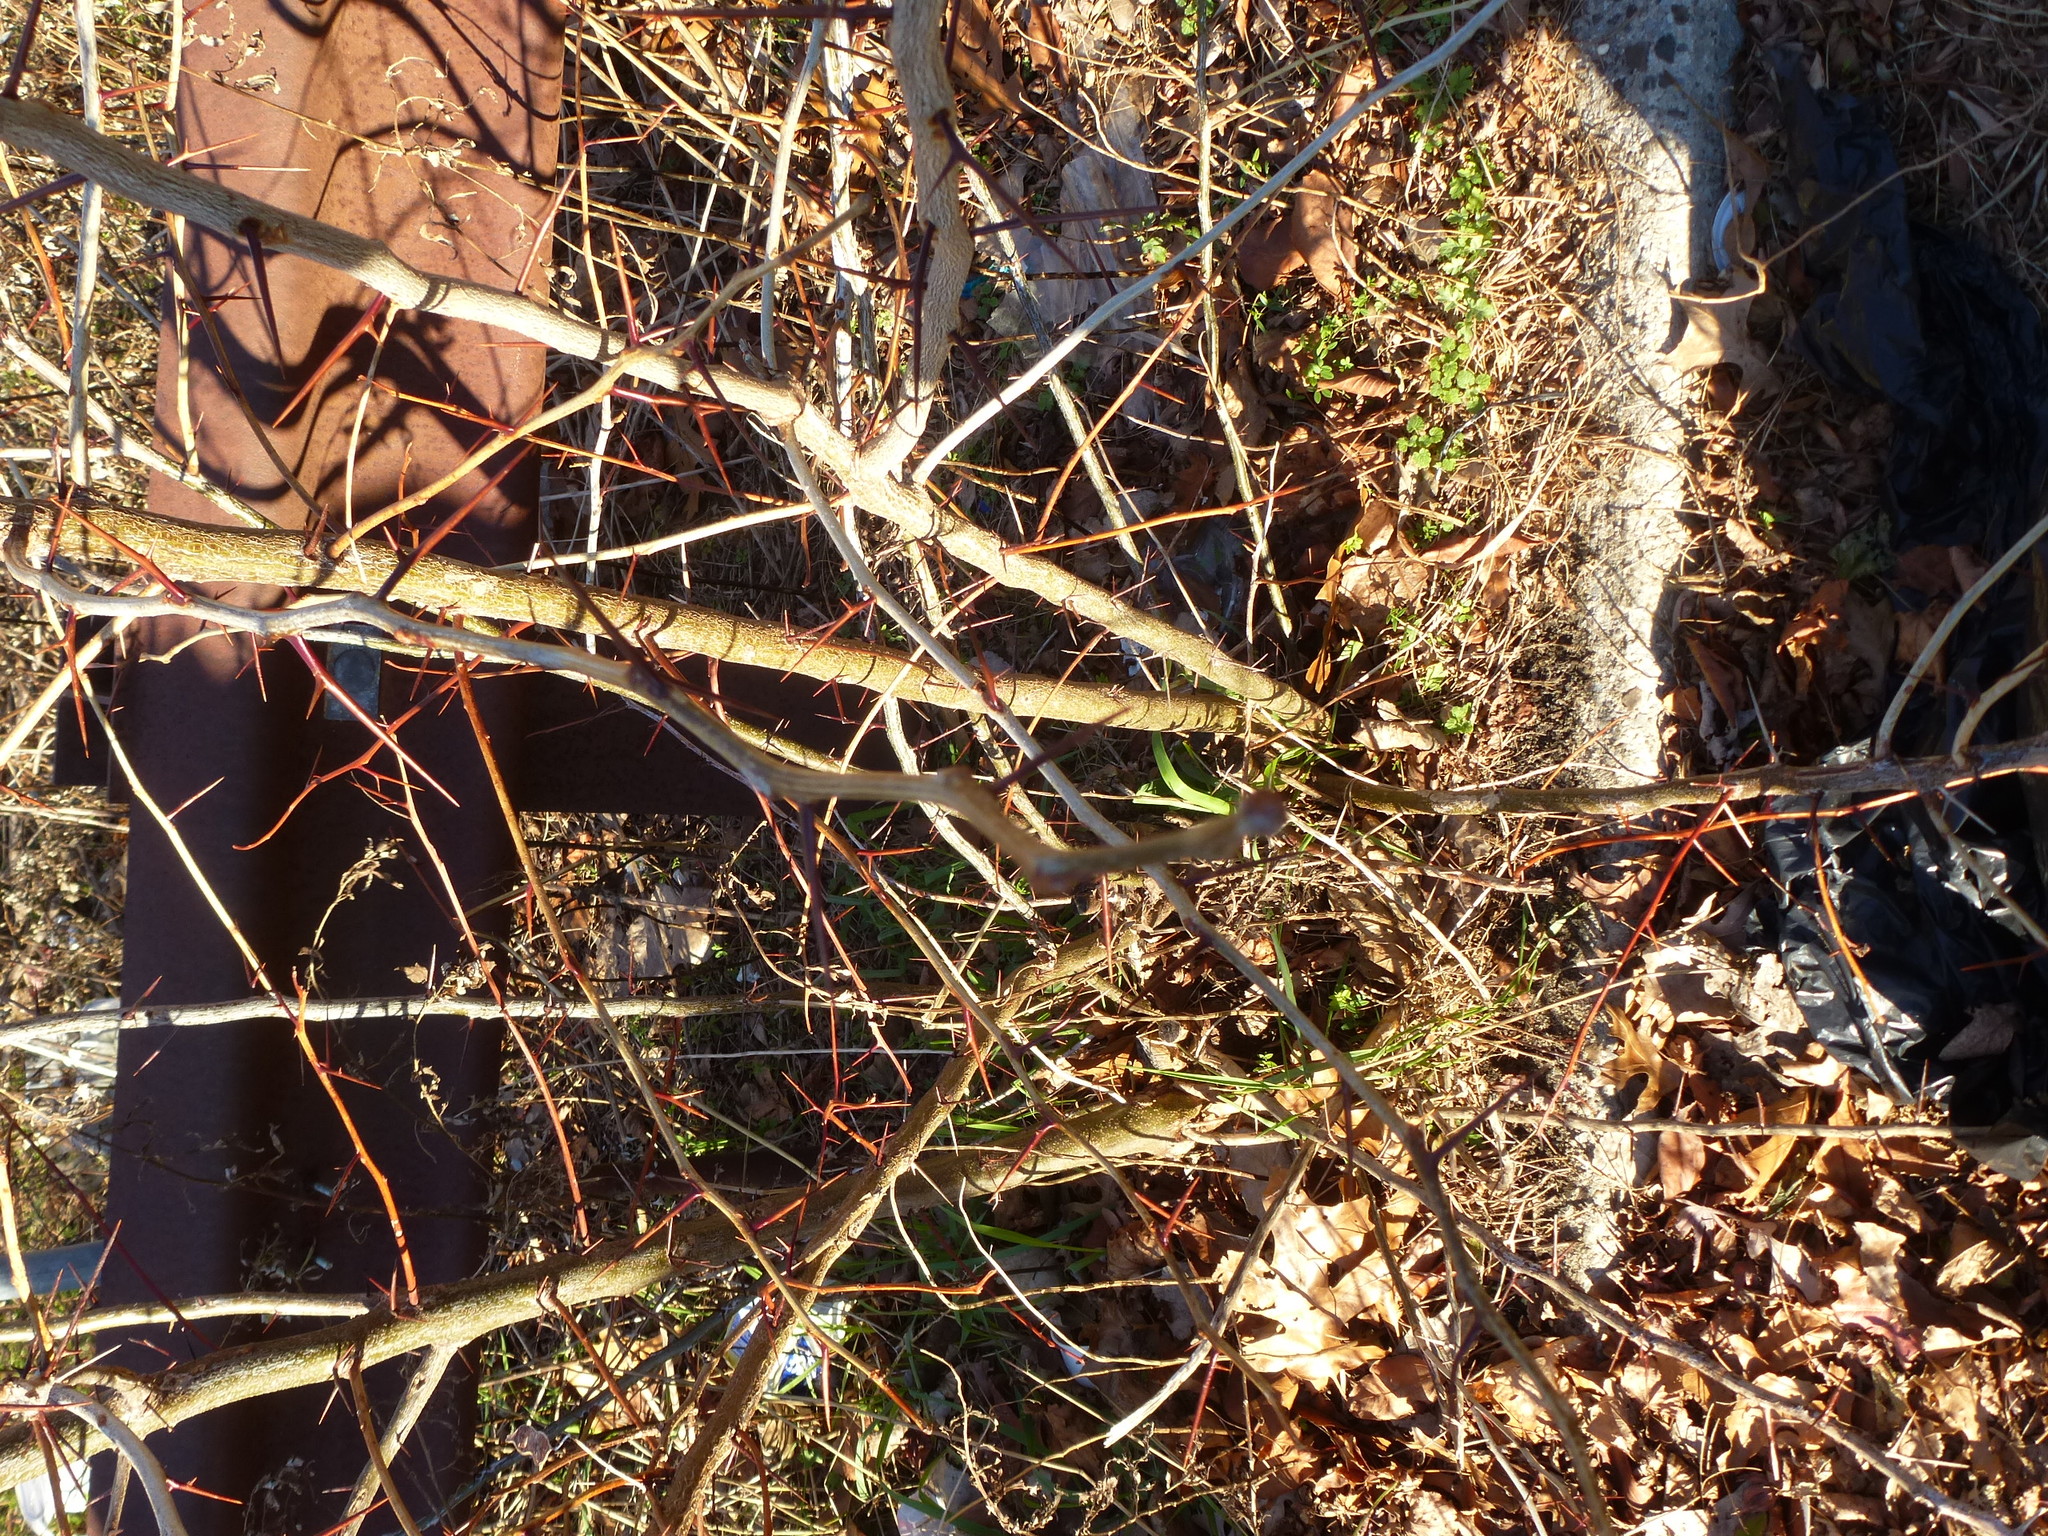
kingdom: Plantae
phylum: Tracheophyta
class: Magnoliopsida
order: Fabales
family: Fabaceae
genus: Gleditsia
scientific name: Gleditsia triacanthos
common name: Common honeylocust
